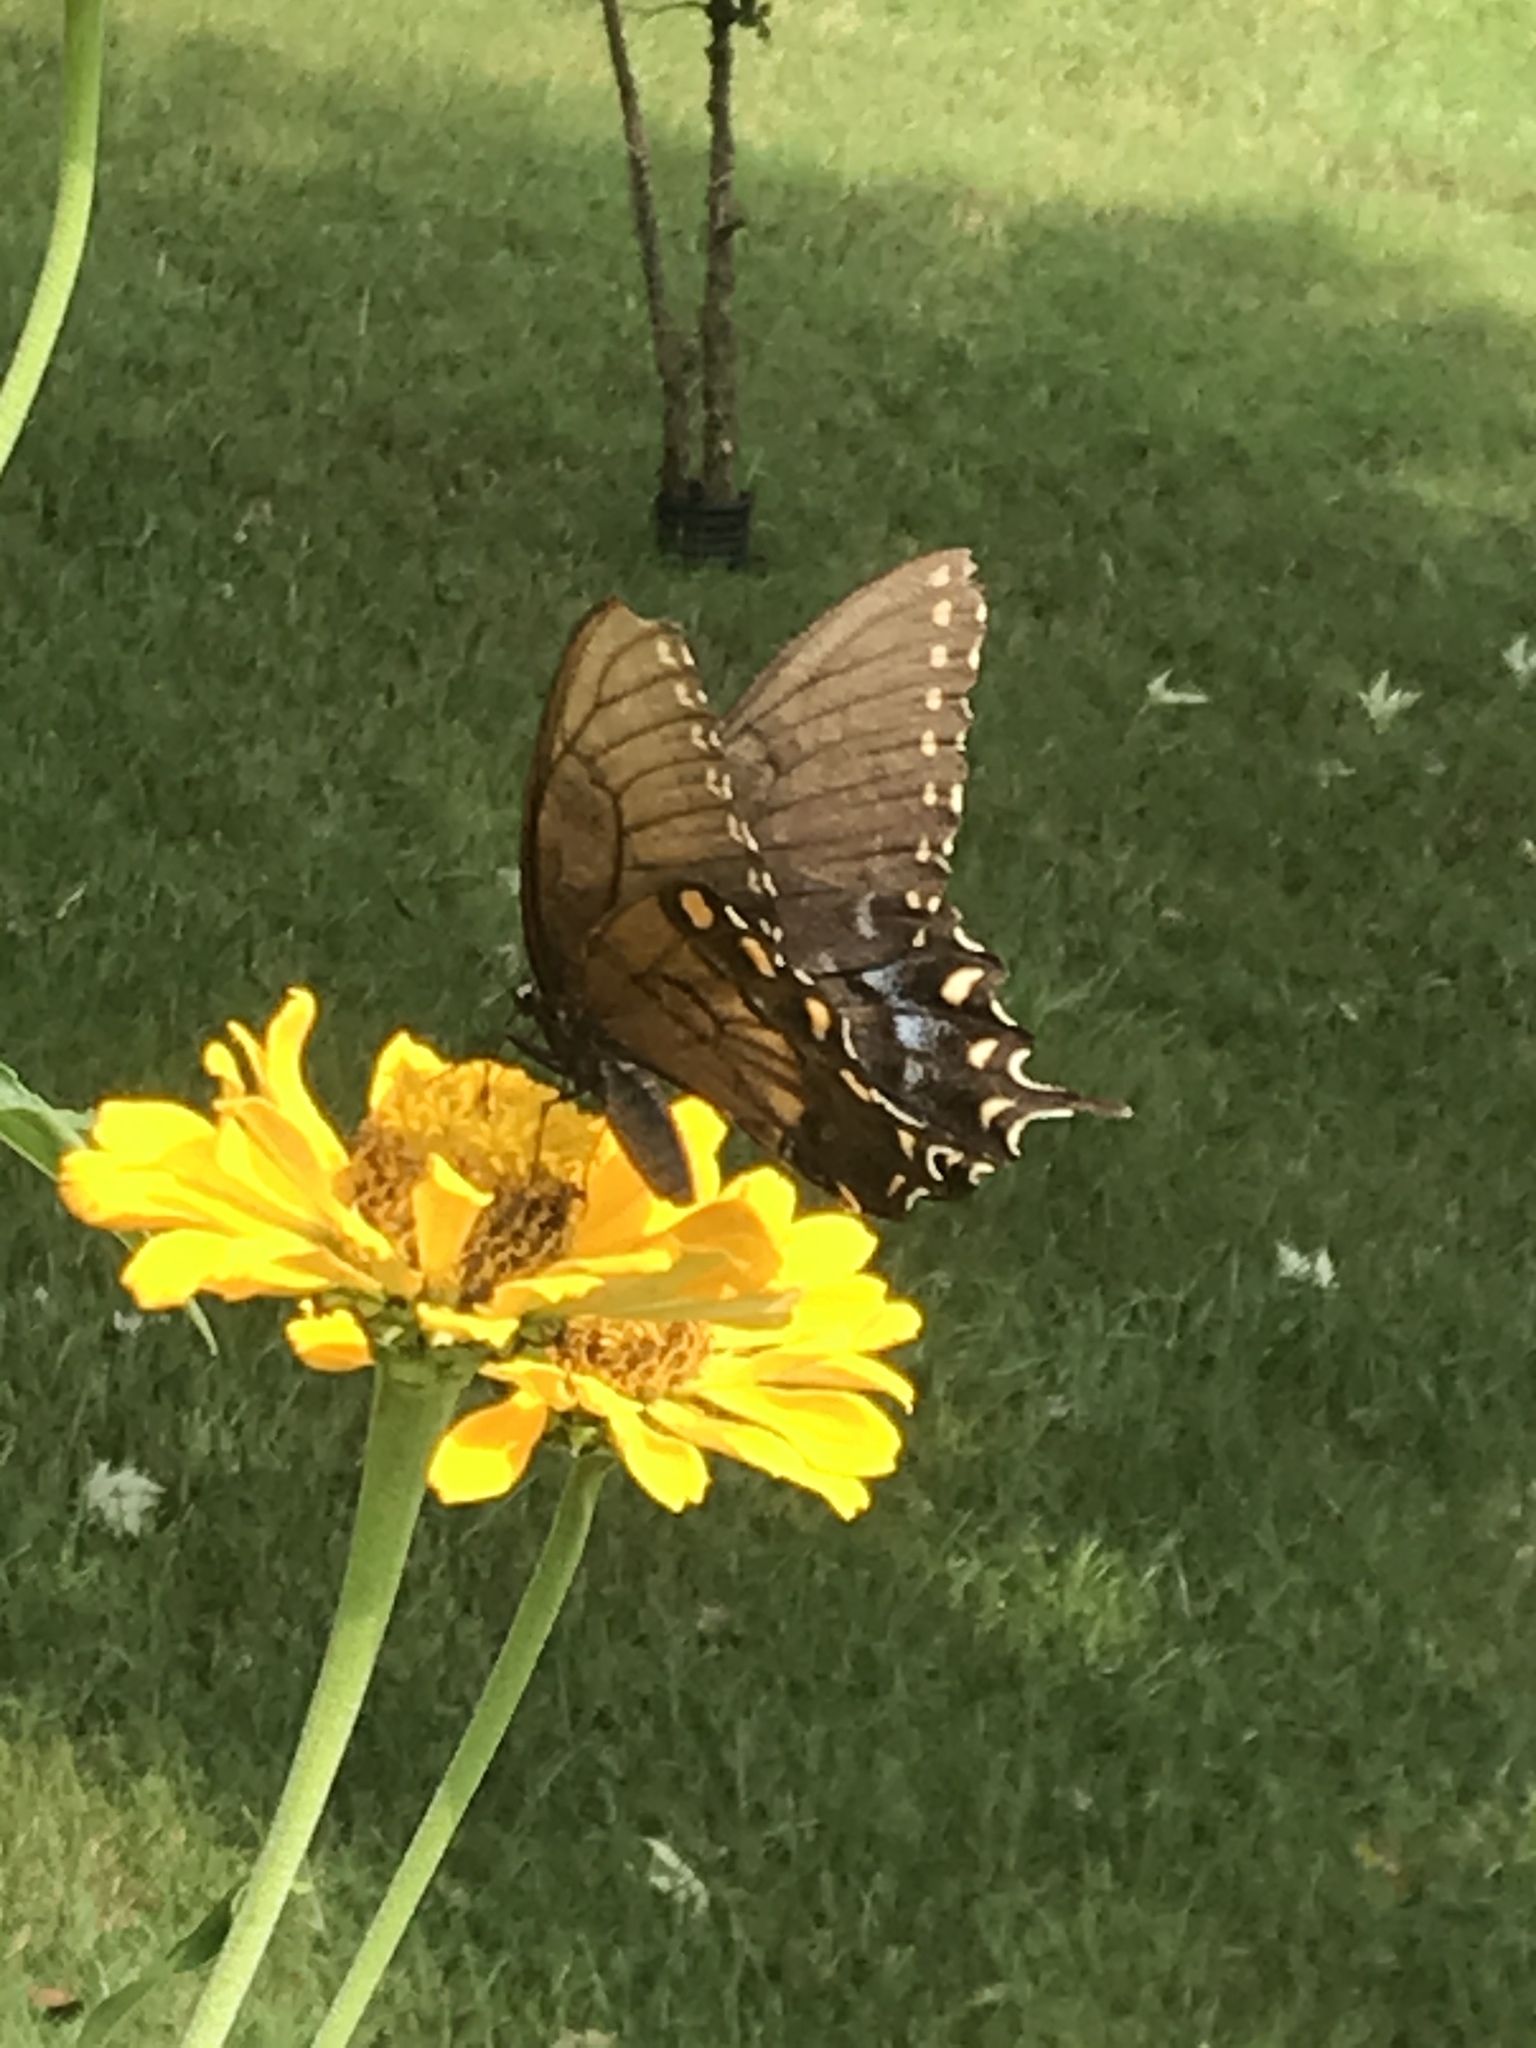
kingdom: Animalia
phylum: Arthropoda
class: Insecta
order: Lepidoptera
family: Papilionidae
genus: Papilio
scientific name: Papilio glaucus
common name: Tiger swallowtail
